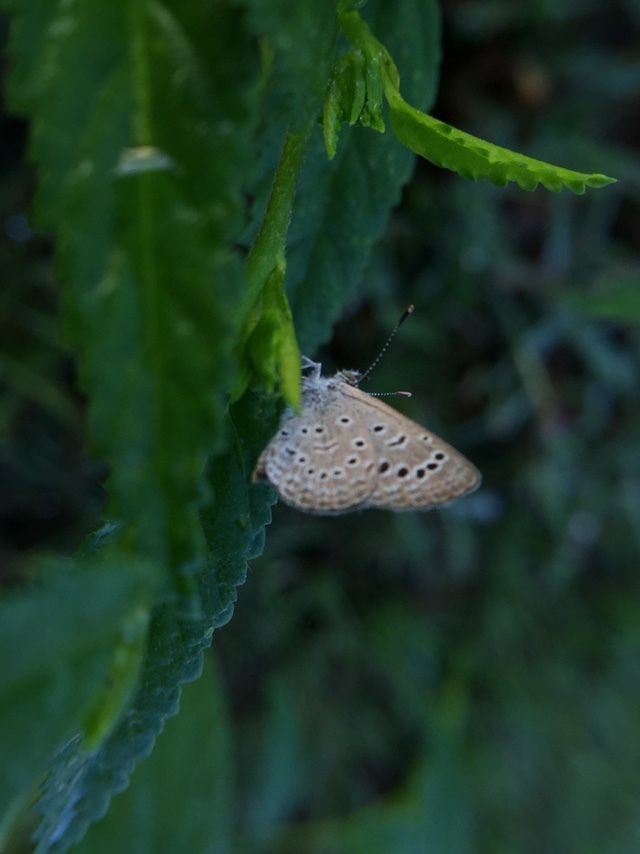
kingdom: Animalia
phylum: Arthropoda
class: Insecta
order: Lepidoptera
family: Lycaenidae
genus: Zizeeria
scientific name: Zizeeria karsandra
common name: Dark grass blue
